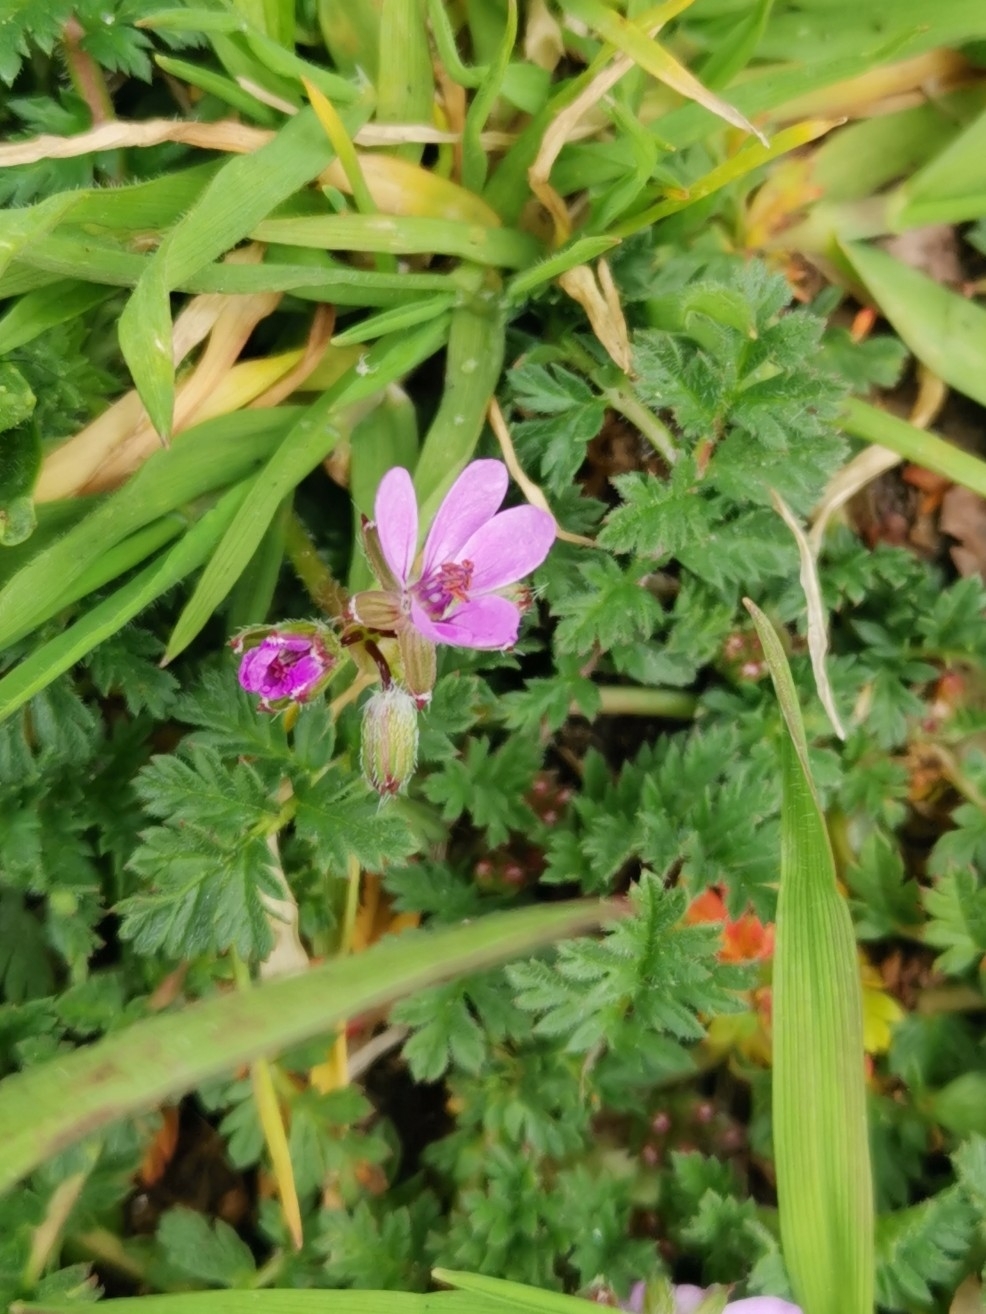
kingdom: Plantae
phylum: Tracheophyta
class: Magnoliopsida
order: Geraniales
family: Geraniaceae
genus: Erodium
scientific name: Erodium cicutarium
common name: Common stork's-bill
